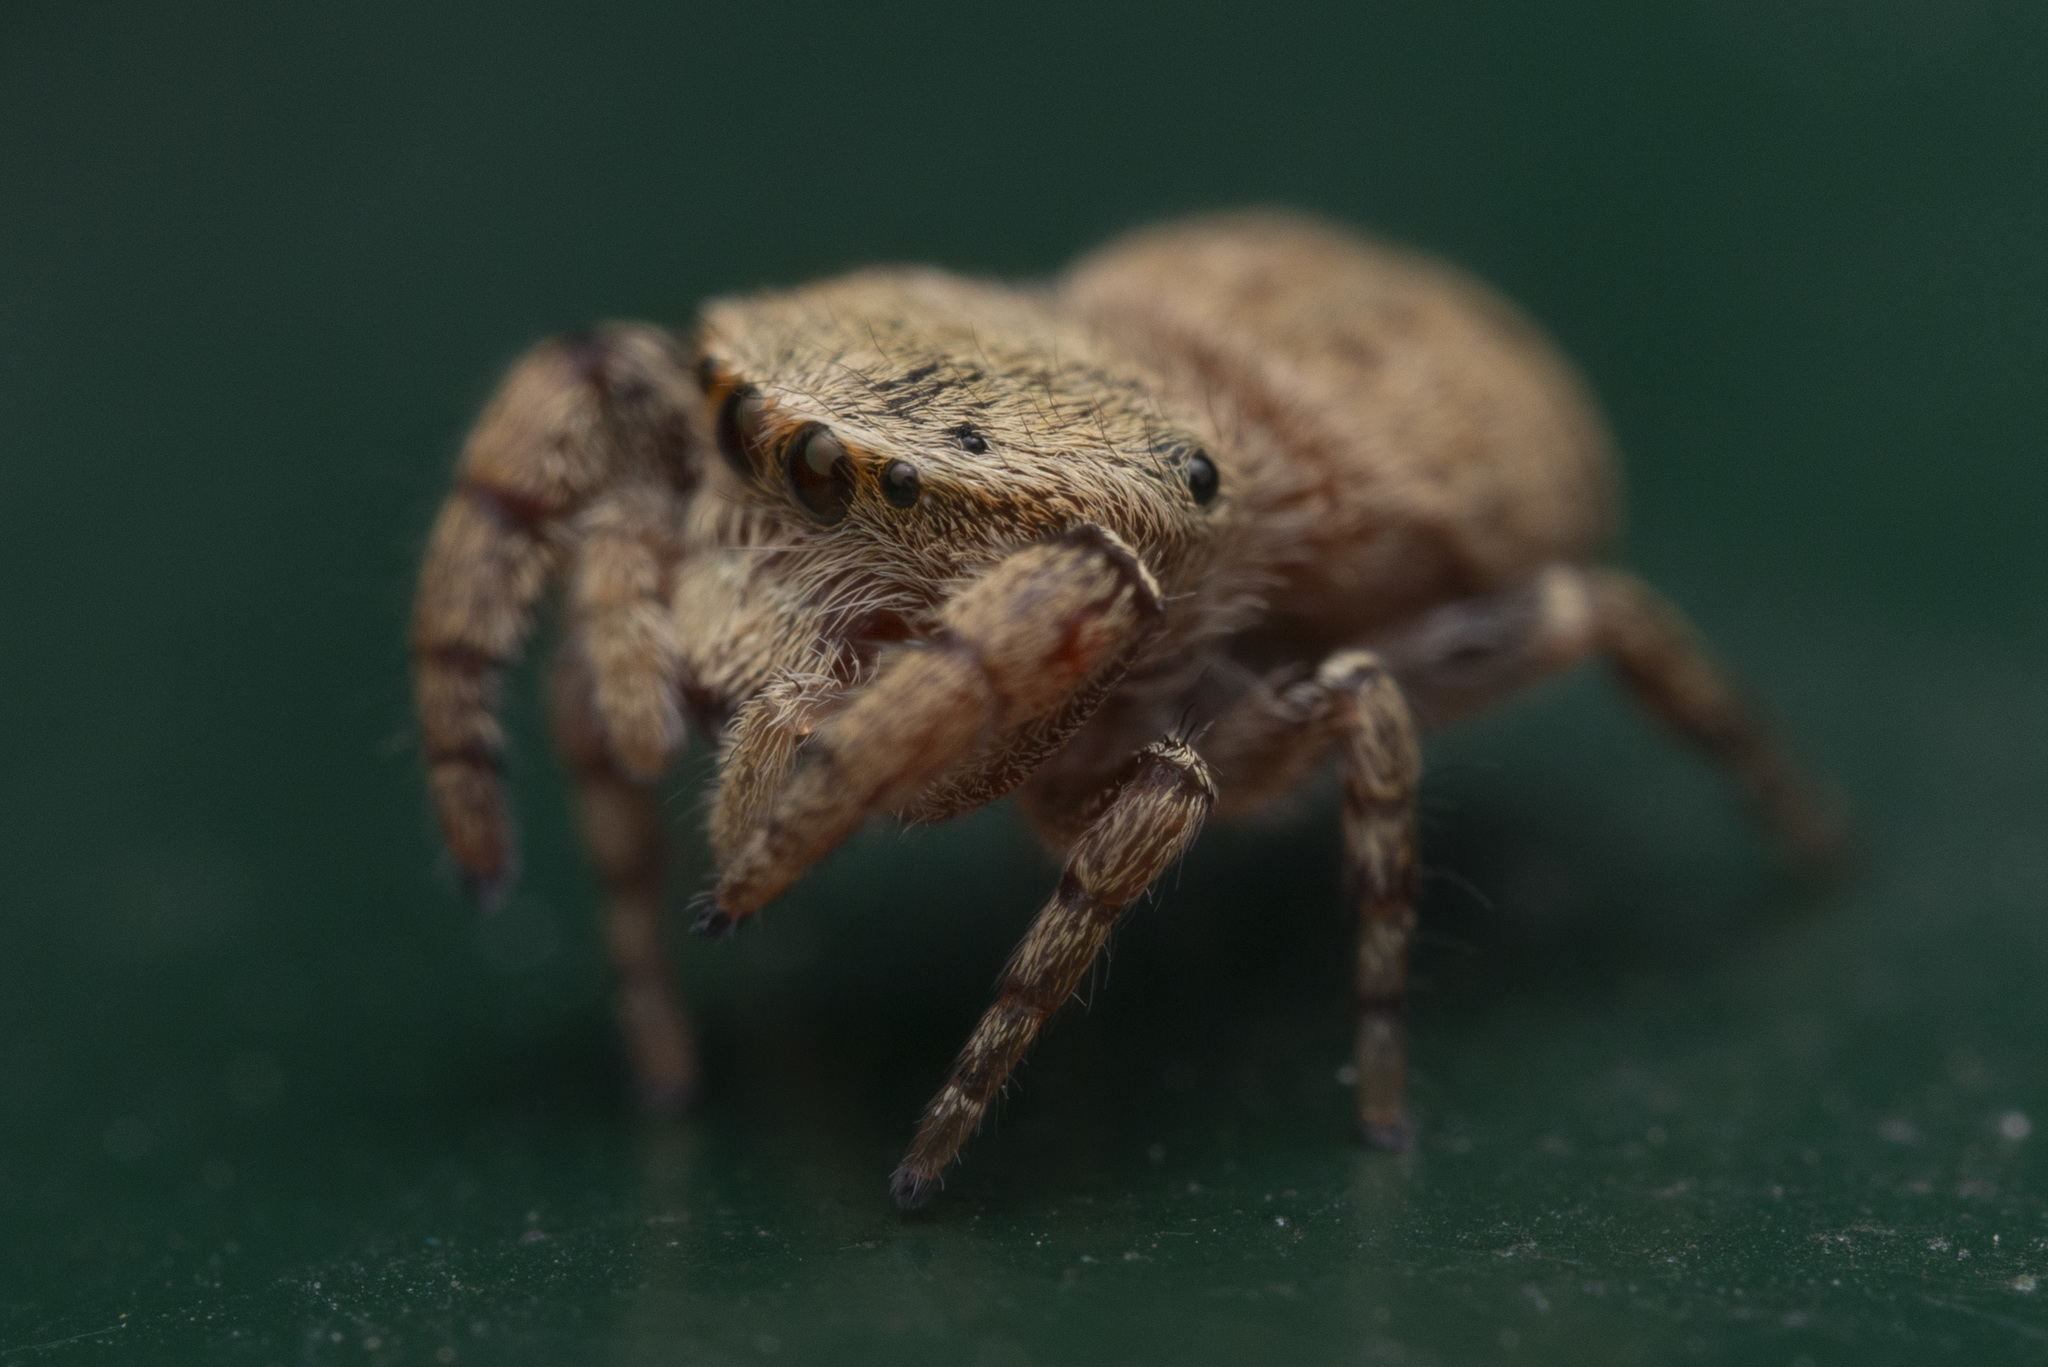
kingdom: Animalia
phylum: Arthropoda
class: Arachnida
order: Araneae
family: Salticidae
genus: Rhene
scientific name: Rhene flavicomans
